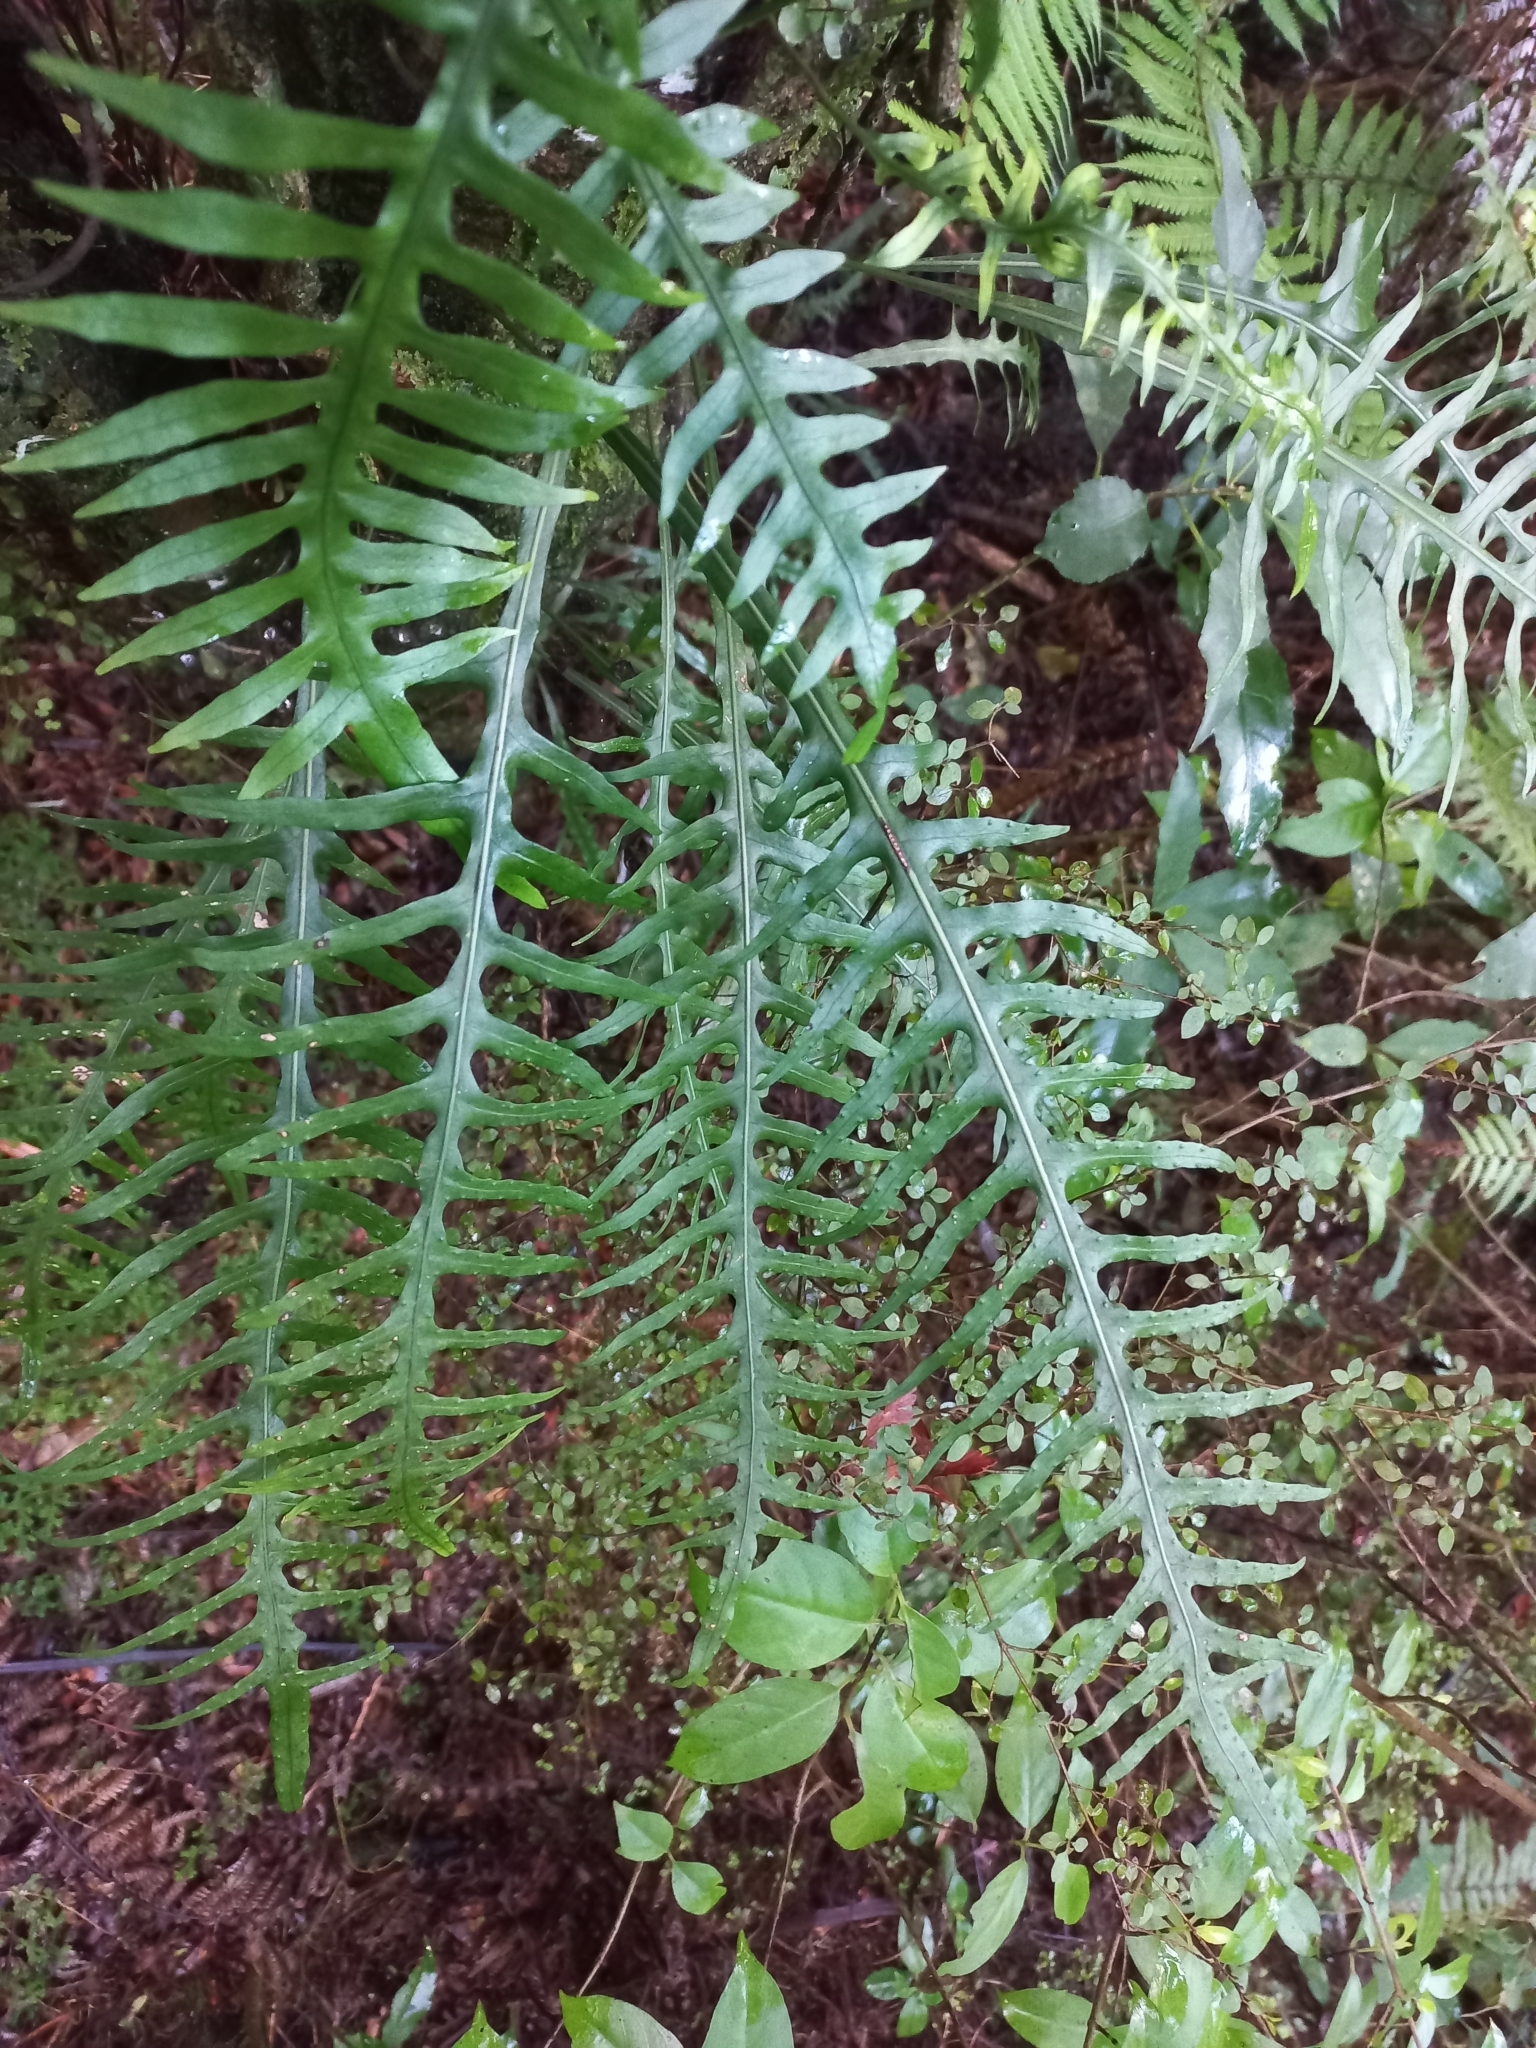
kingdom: Plantae
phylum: Tracheophyta
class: Polypodiopsida
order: Polypodiales
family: Polypodiaceae
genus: Lecanopteris
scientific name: Lecanopteris scandens
